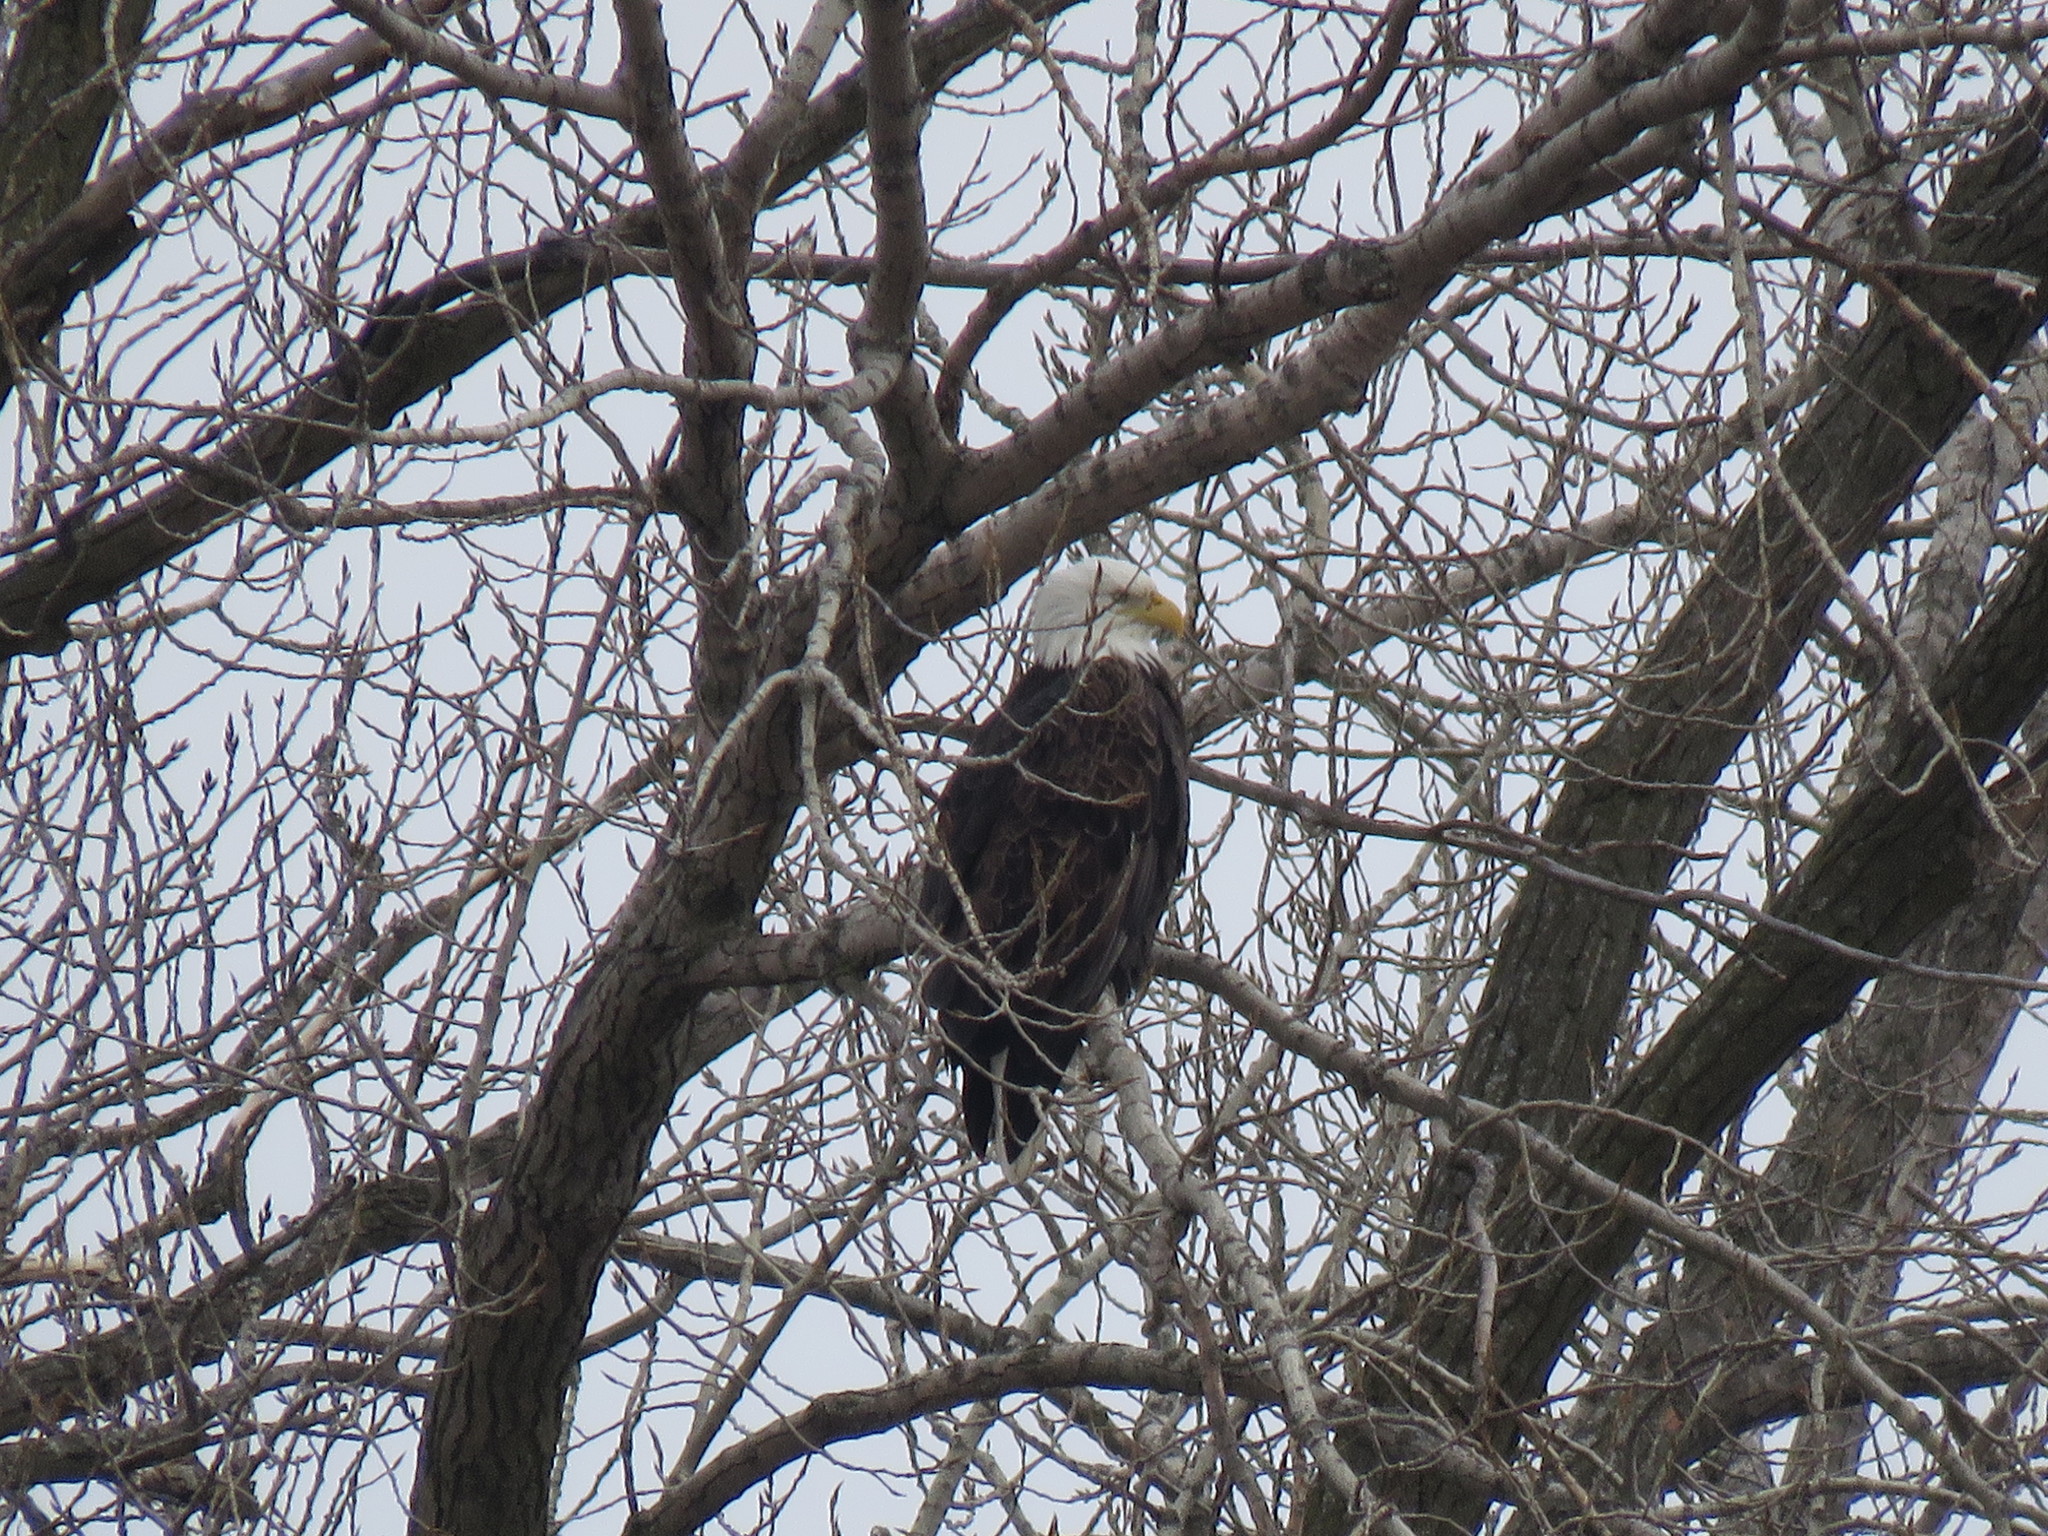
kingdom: Animalia
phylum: Chordata
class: Aves
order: Accipitriformes
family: Accipitridae
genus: Haliaeetus
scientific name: Haliaeetus leucocephalus
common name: Bald eagle
